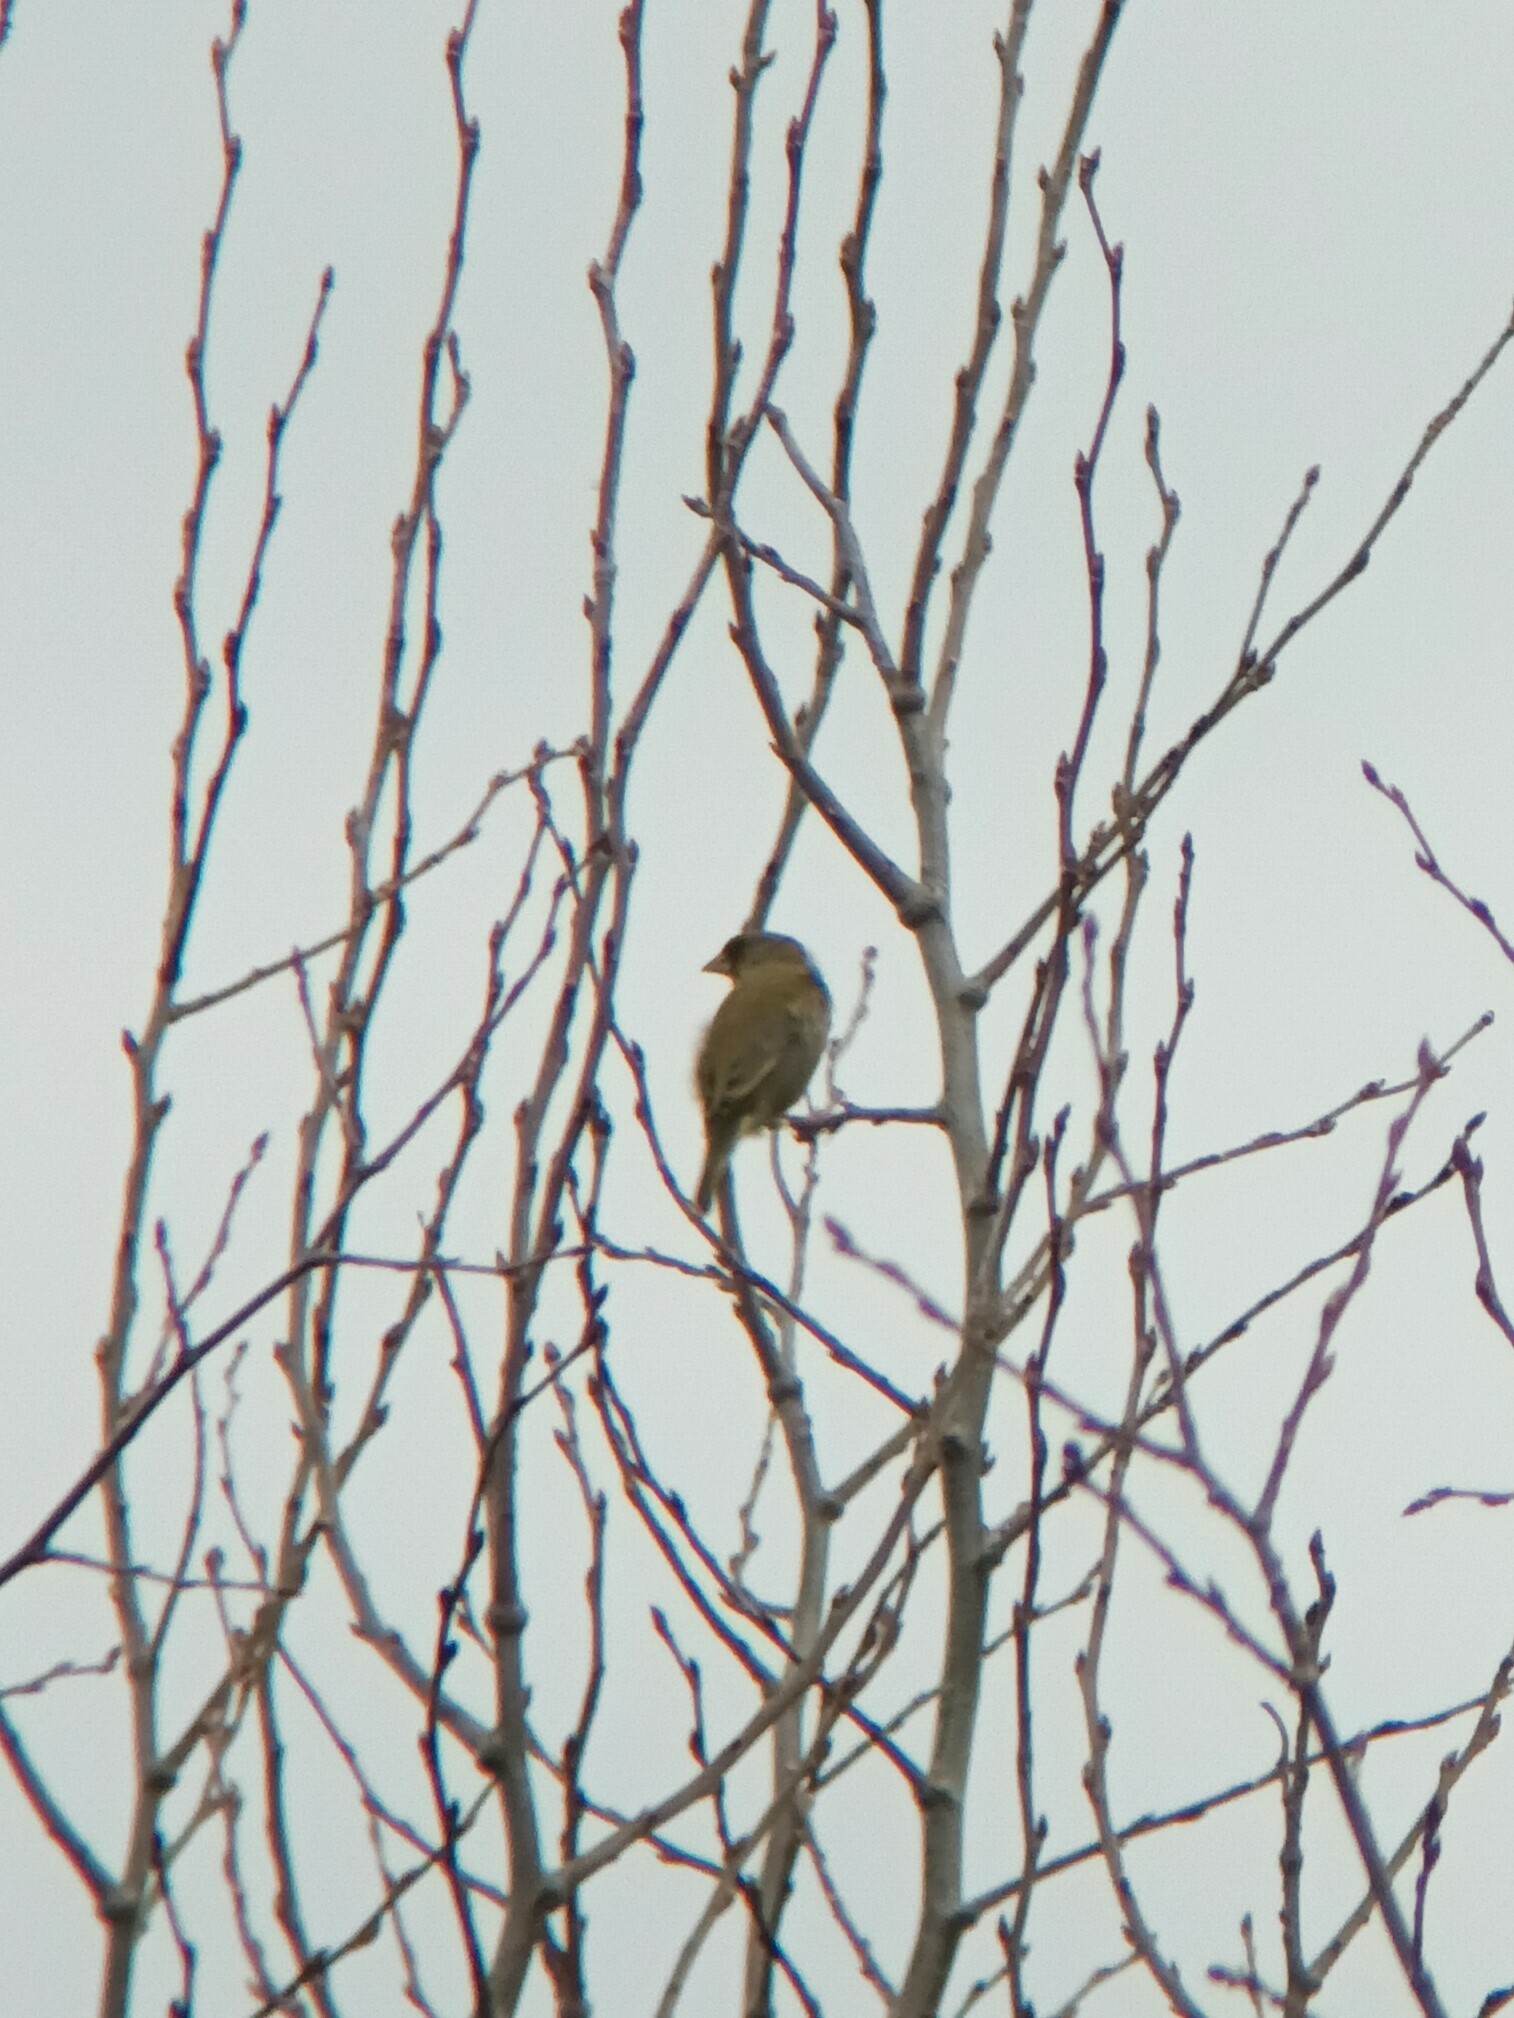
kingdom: Plantae
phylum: Tracheophyta
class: Liliopsida
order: Poales
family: Poaceae
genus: Chloris
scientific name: Chloris chloris
